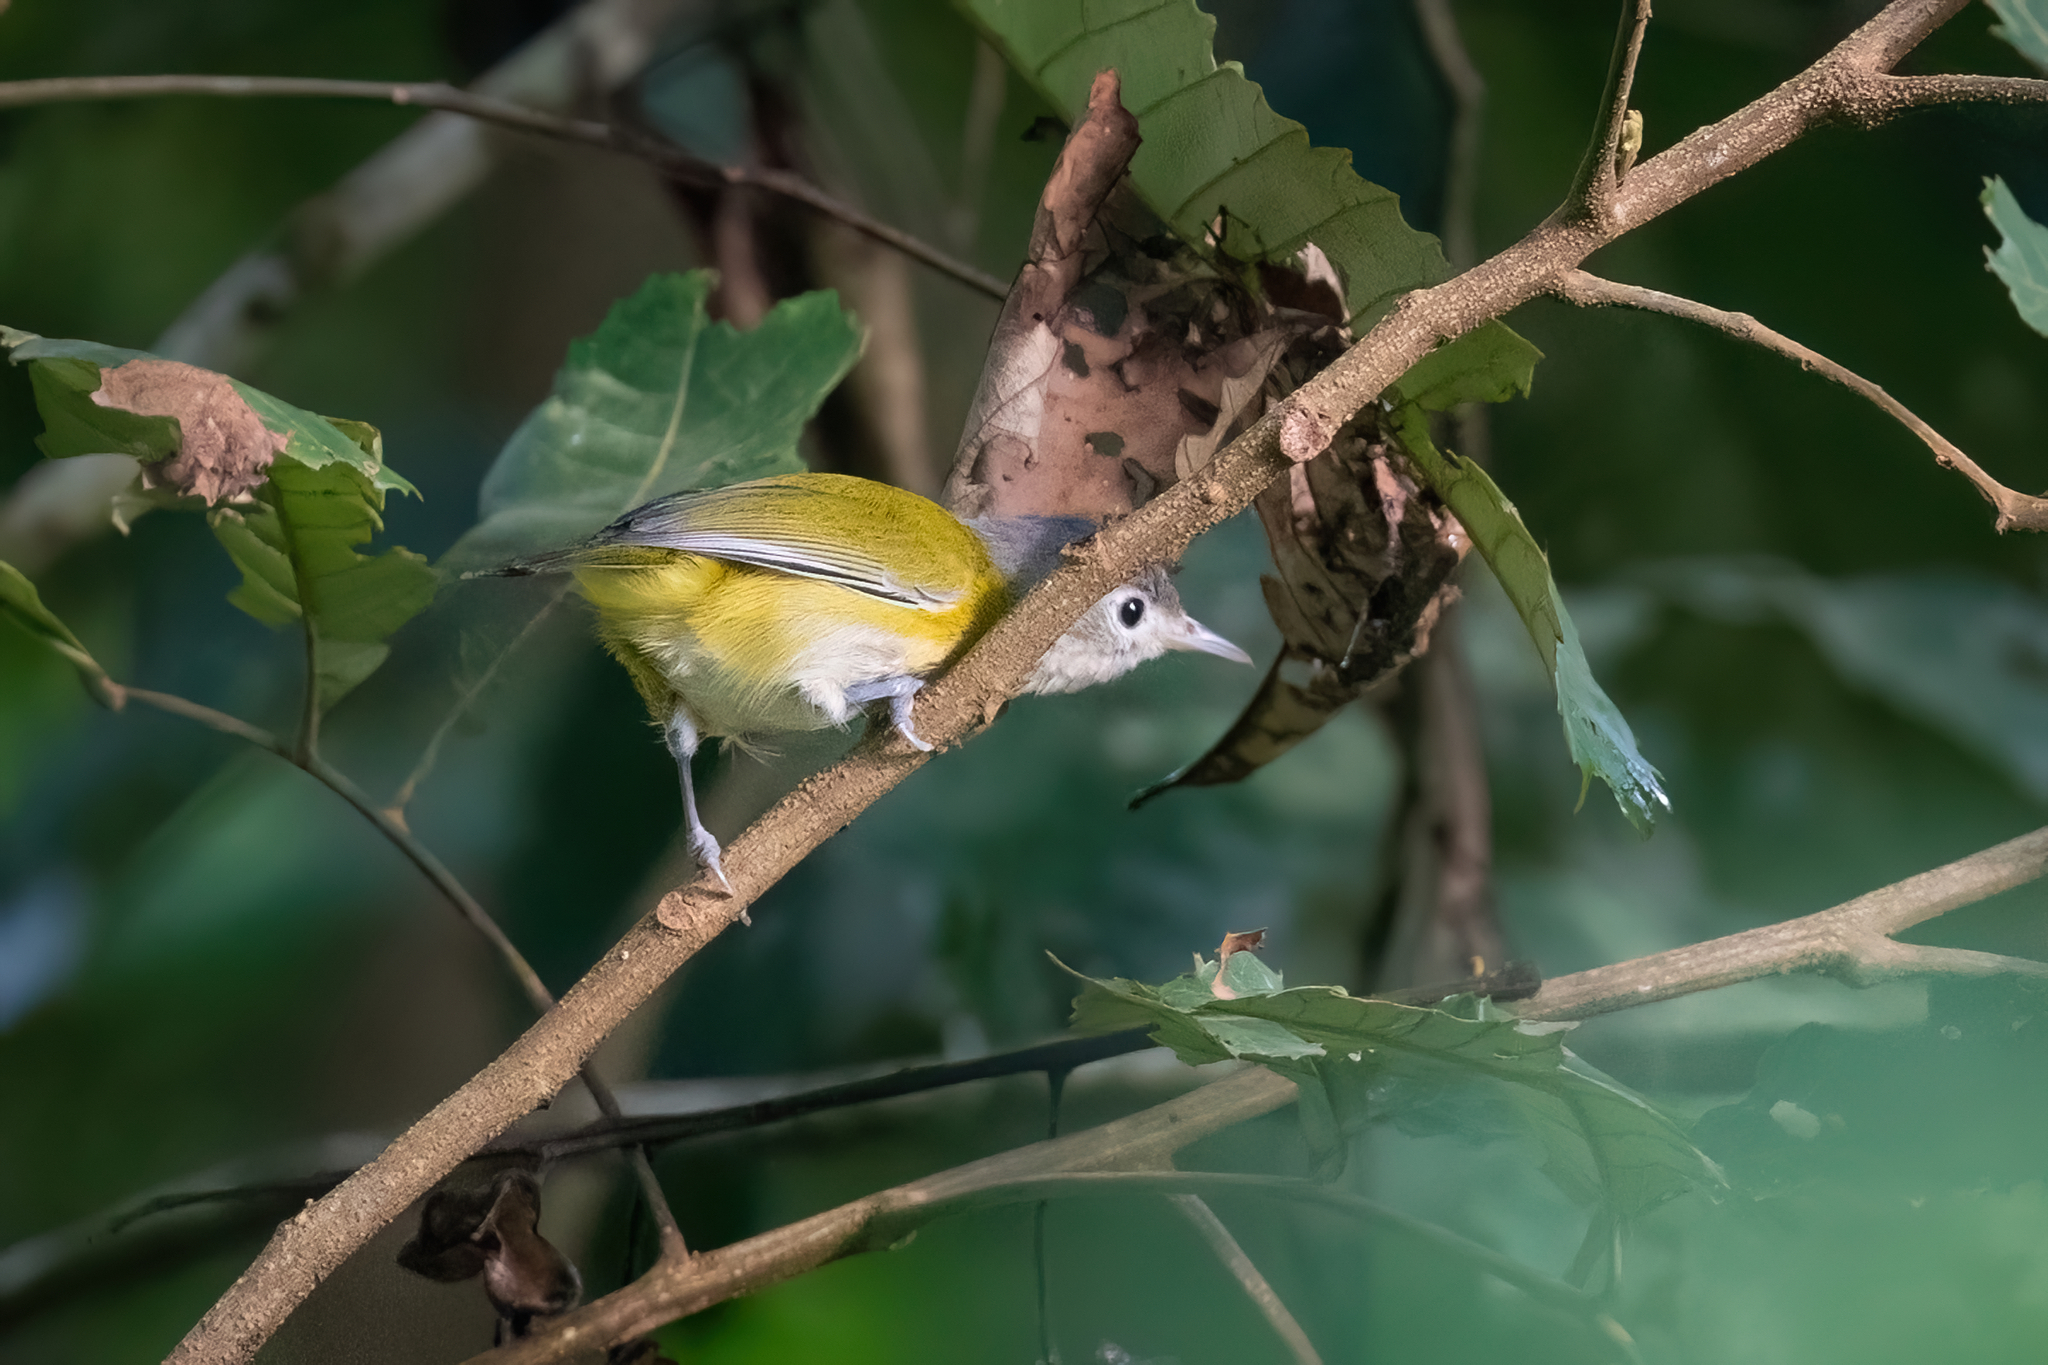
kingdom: Animalia
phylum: Chordata
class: Aves
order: Passeriformes
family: Vireonidae
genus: Hylophilus
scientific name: Hylophilus decurtatus
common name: Lesser greenlet
